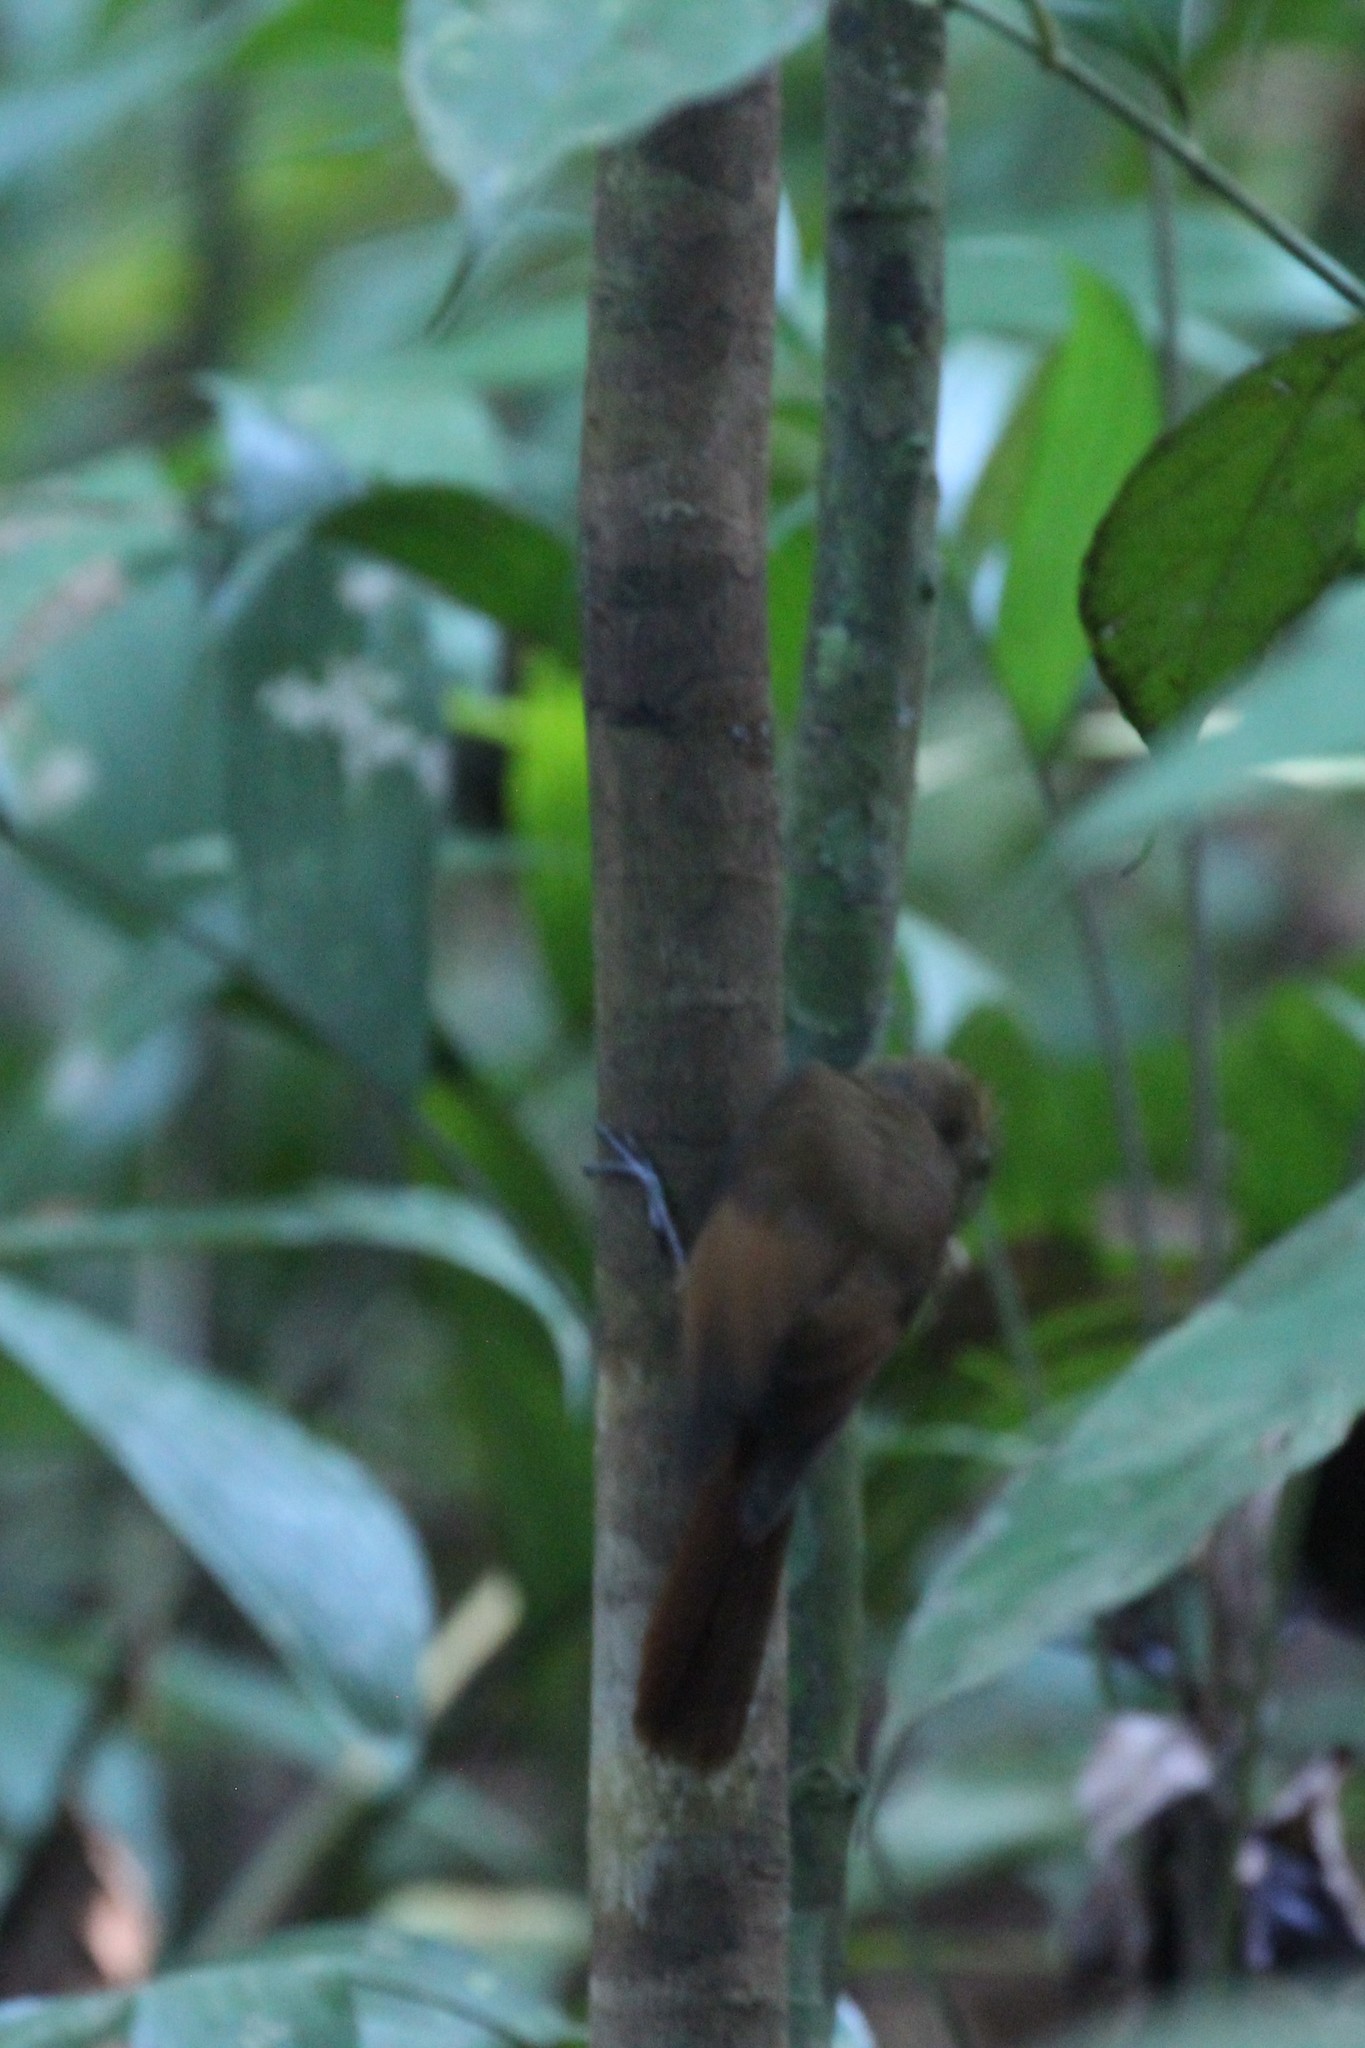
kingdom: Animalia
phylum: Chordata
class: Aves
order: Passeriformes
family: Furnariidae
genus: Dendrocincla
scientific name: Dendrocincla anabatina
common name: Tawny-winged woodcreeper
